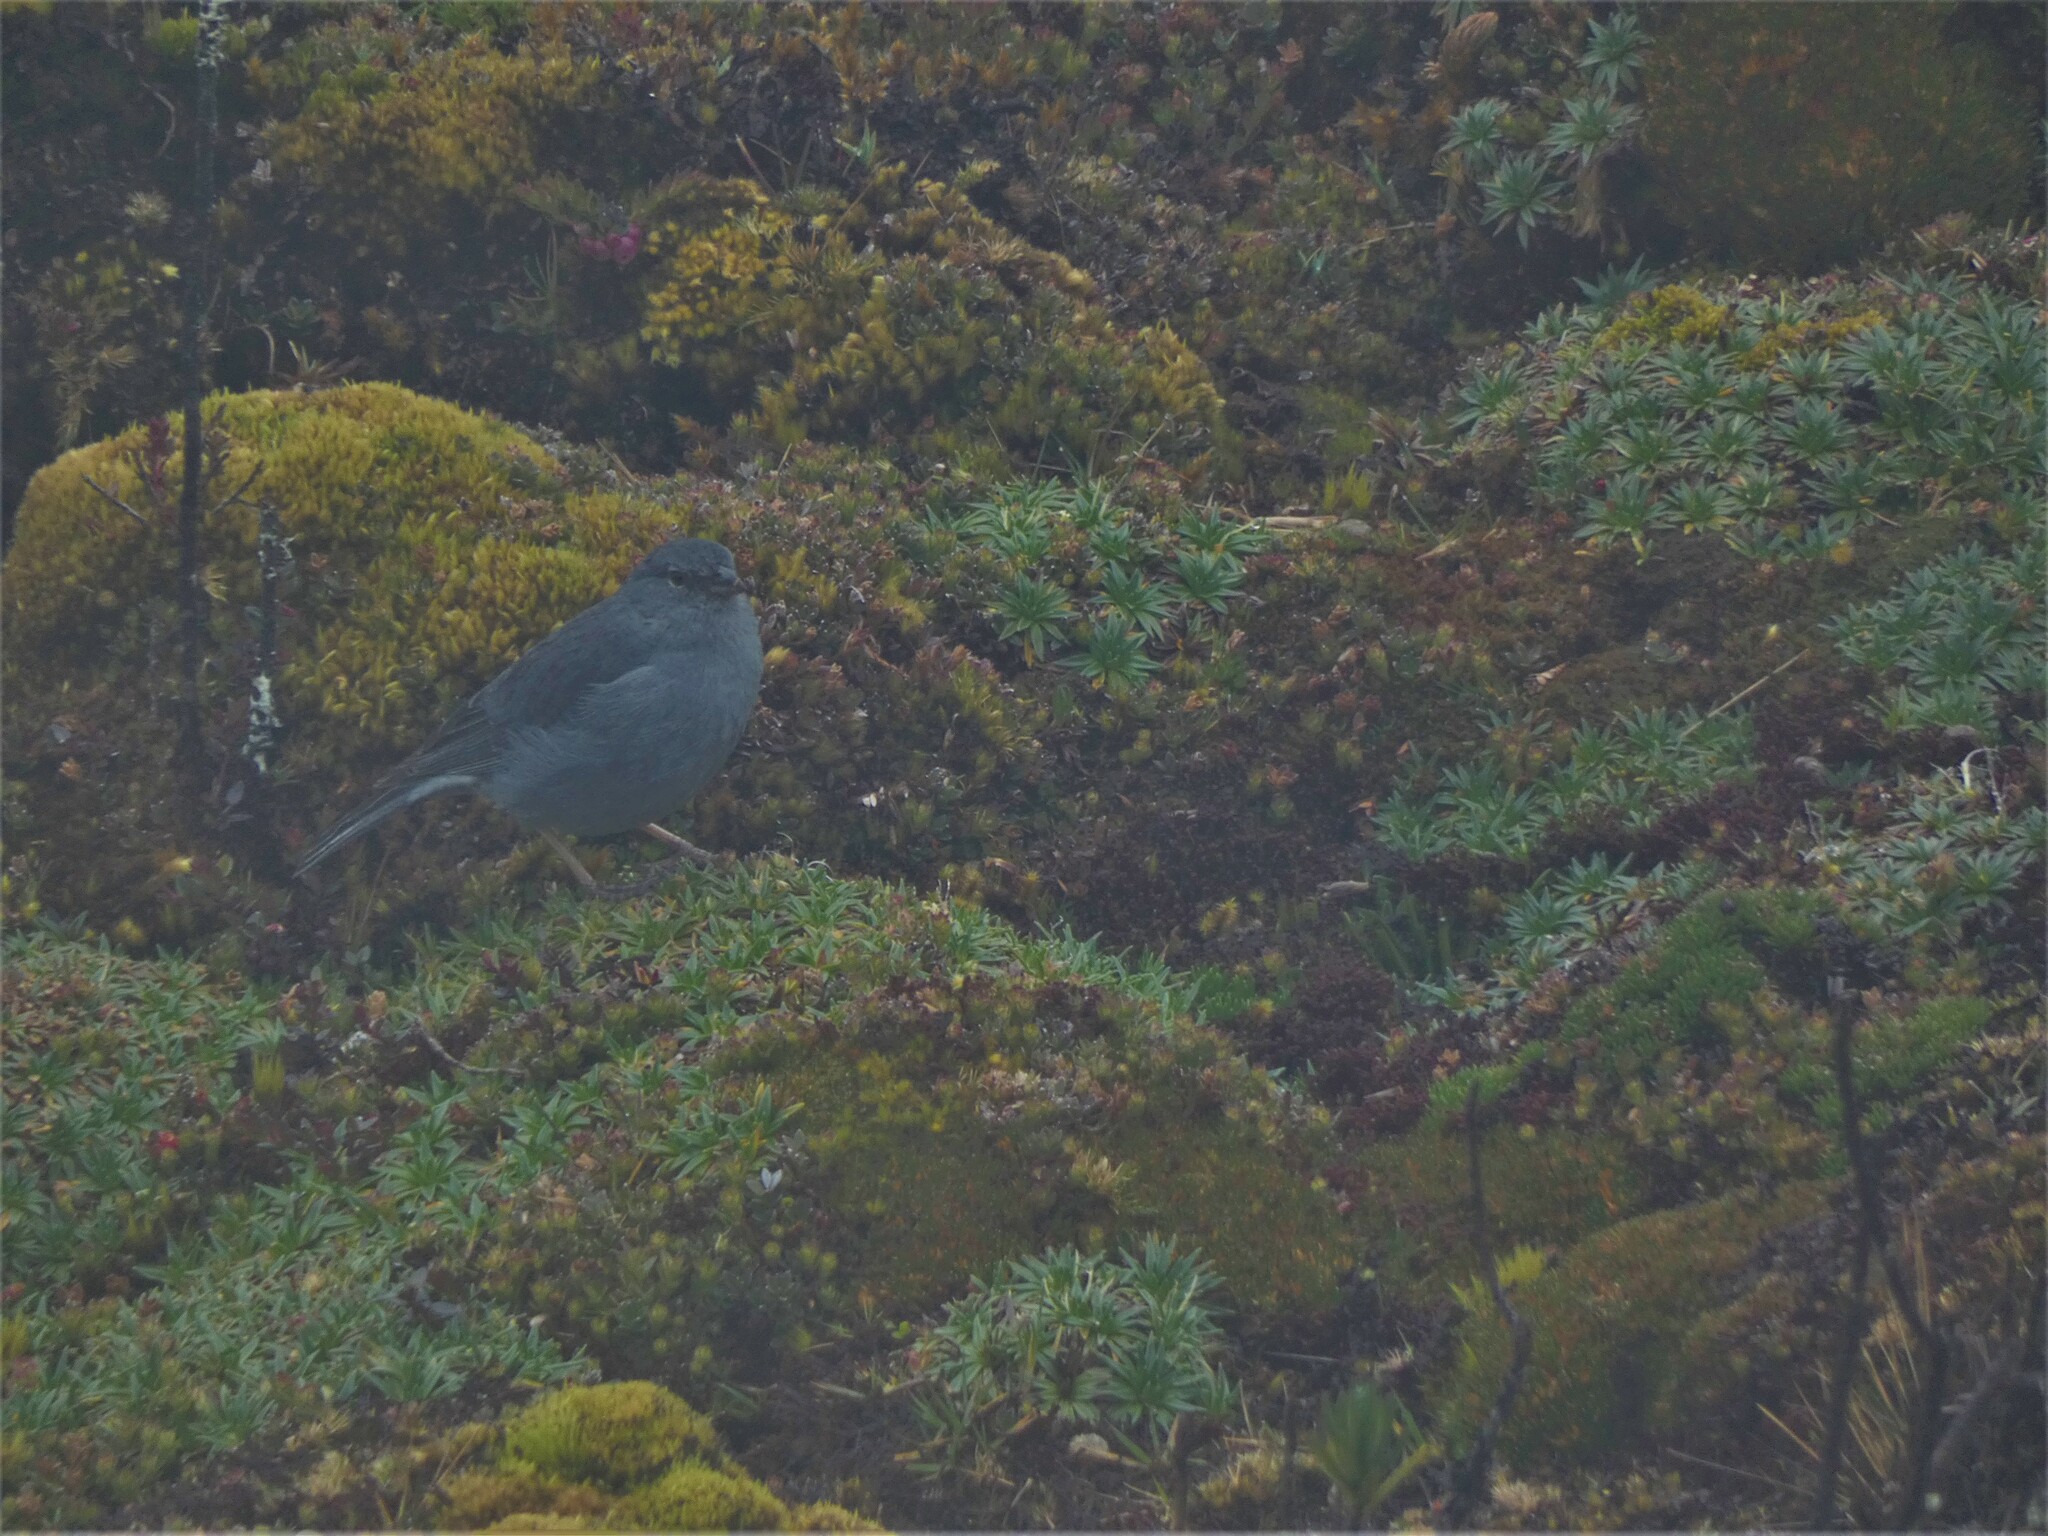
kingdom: Animalia
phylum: Chordata
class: Aves
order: Passeriformes
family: Thraupidae
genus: Geospizopsis
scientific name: Geospizopsis unicolor
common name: Plumbeous sierra-finch
